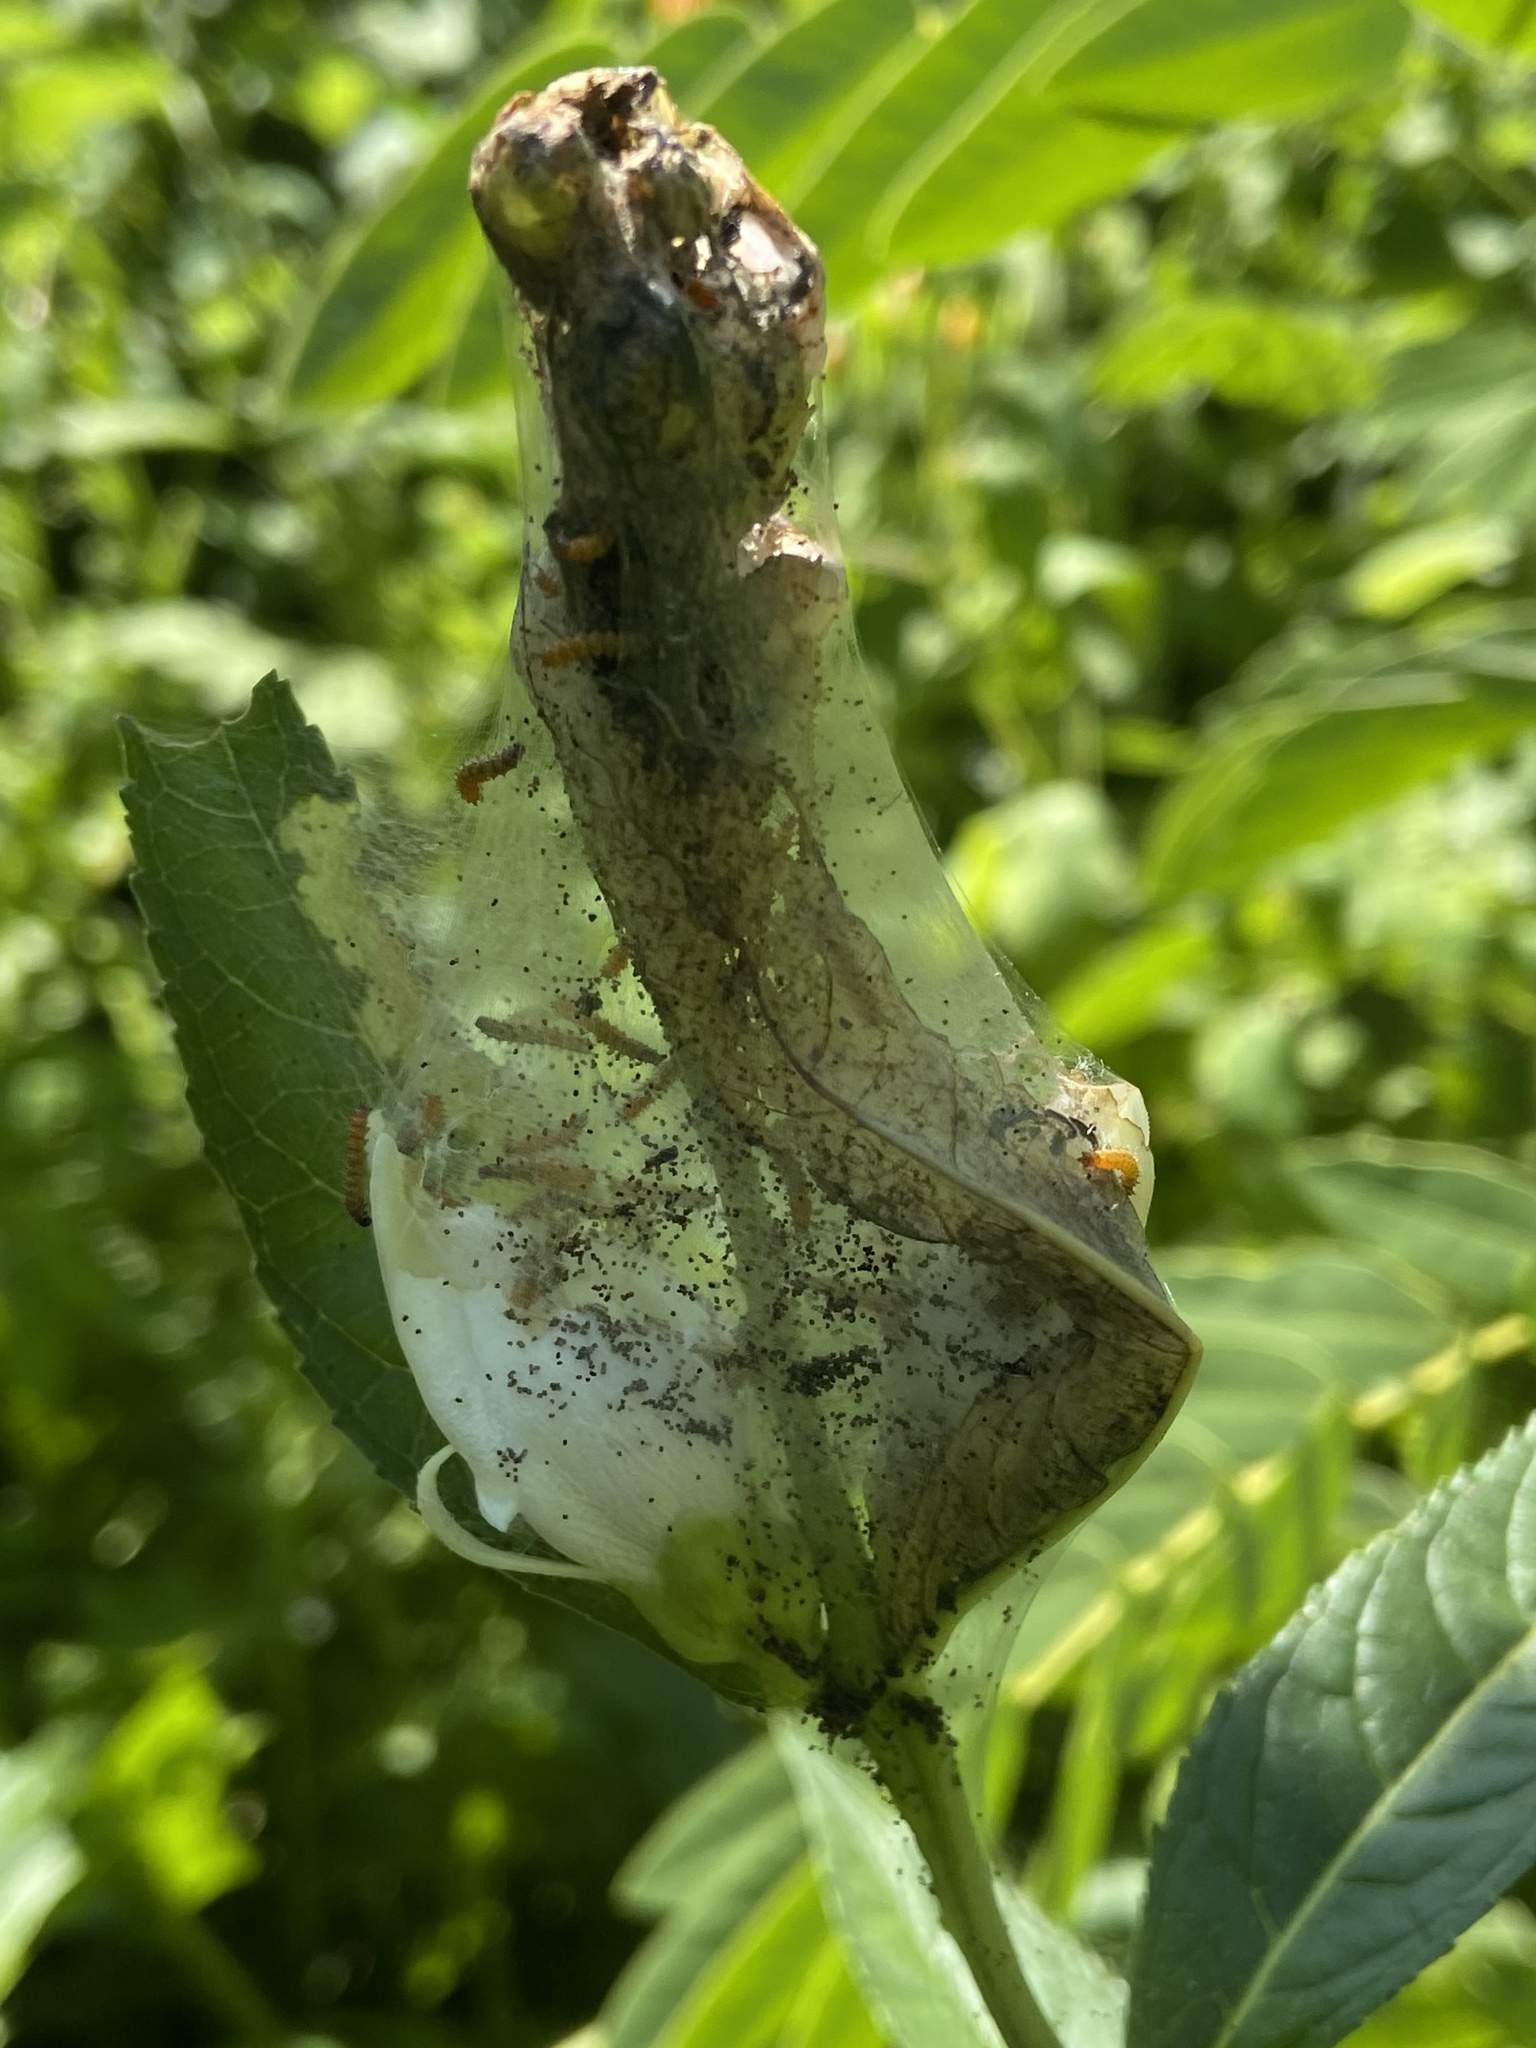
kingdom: Animalia
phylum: Arthropoda
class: Insecta
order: Lepidoptera
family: Nymphalidae
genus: Euphydryas
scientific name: Euphydryas phaeton
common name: Baltimore checkerspot
